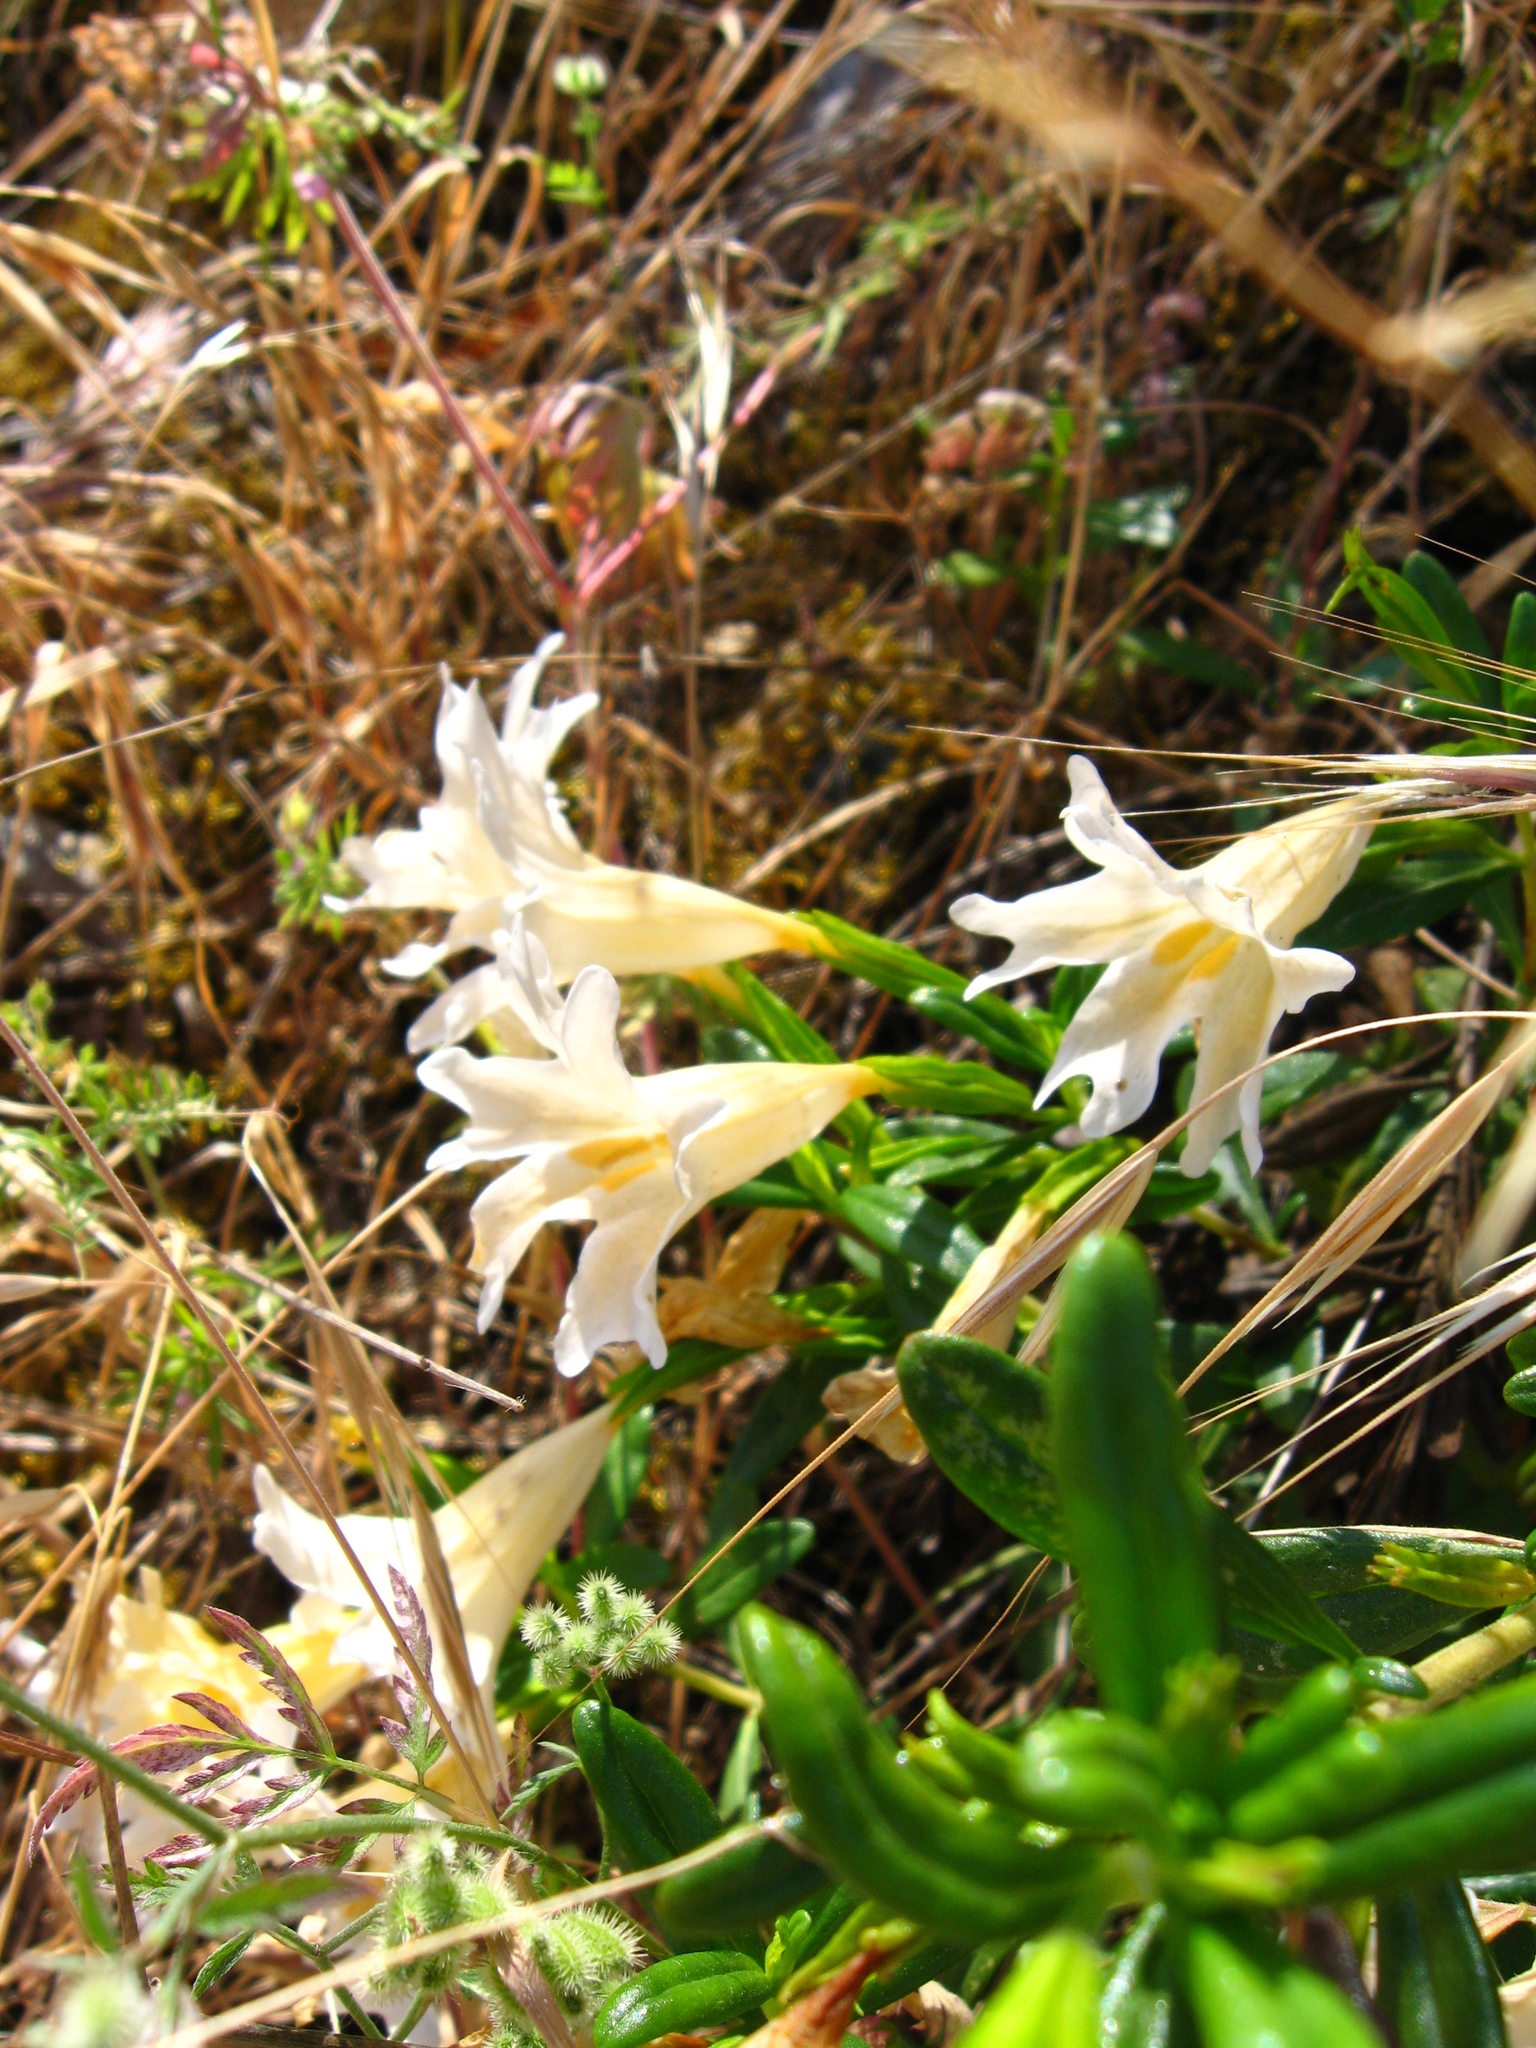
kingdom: Plantae
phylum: Tracheophyta
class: Magnoliopsida
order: Lamiales
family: Phrymaceae
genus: Diplacus
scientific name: Diplacus aurantiacus
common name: Bush monkey-flower
